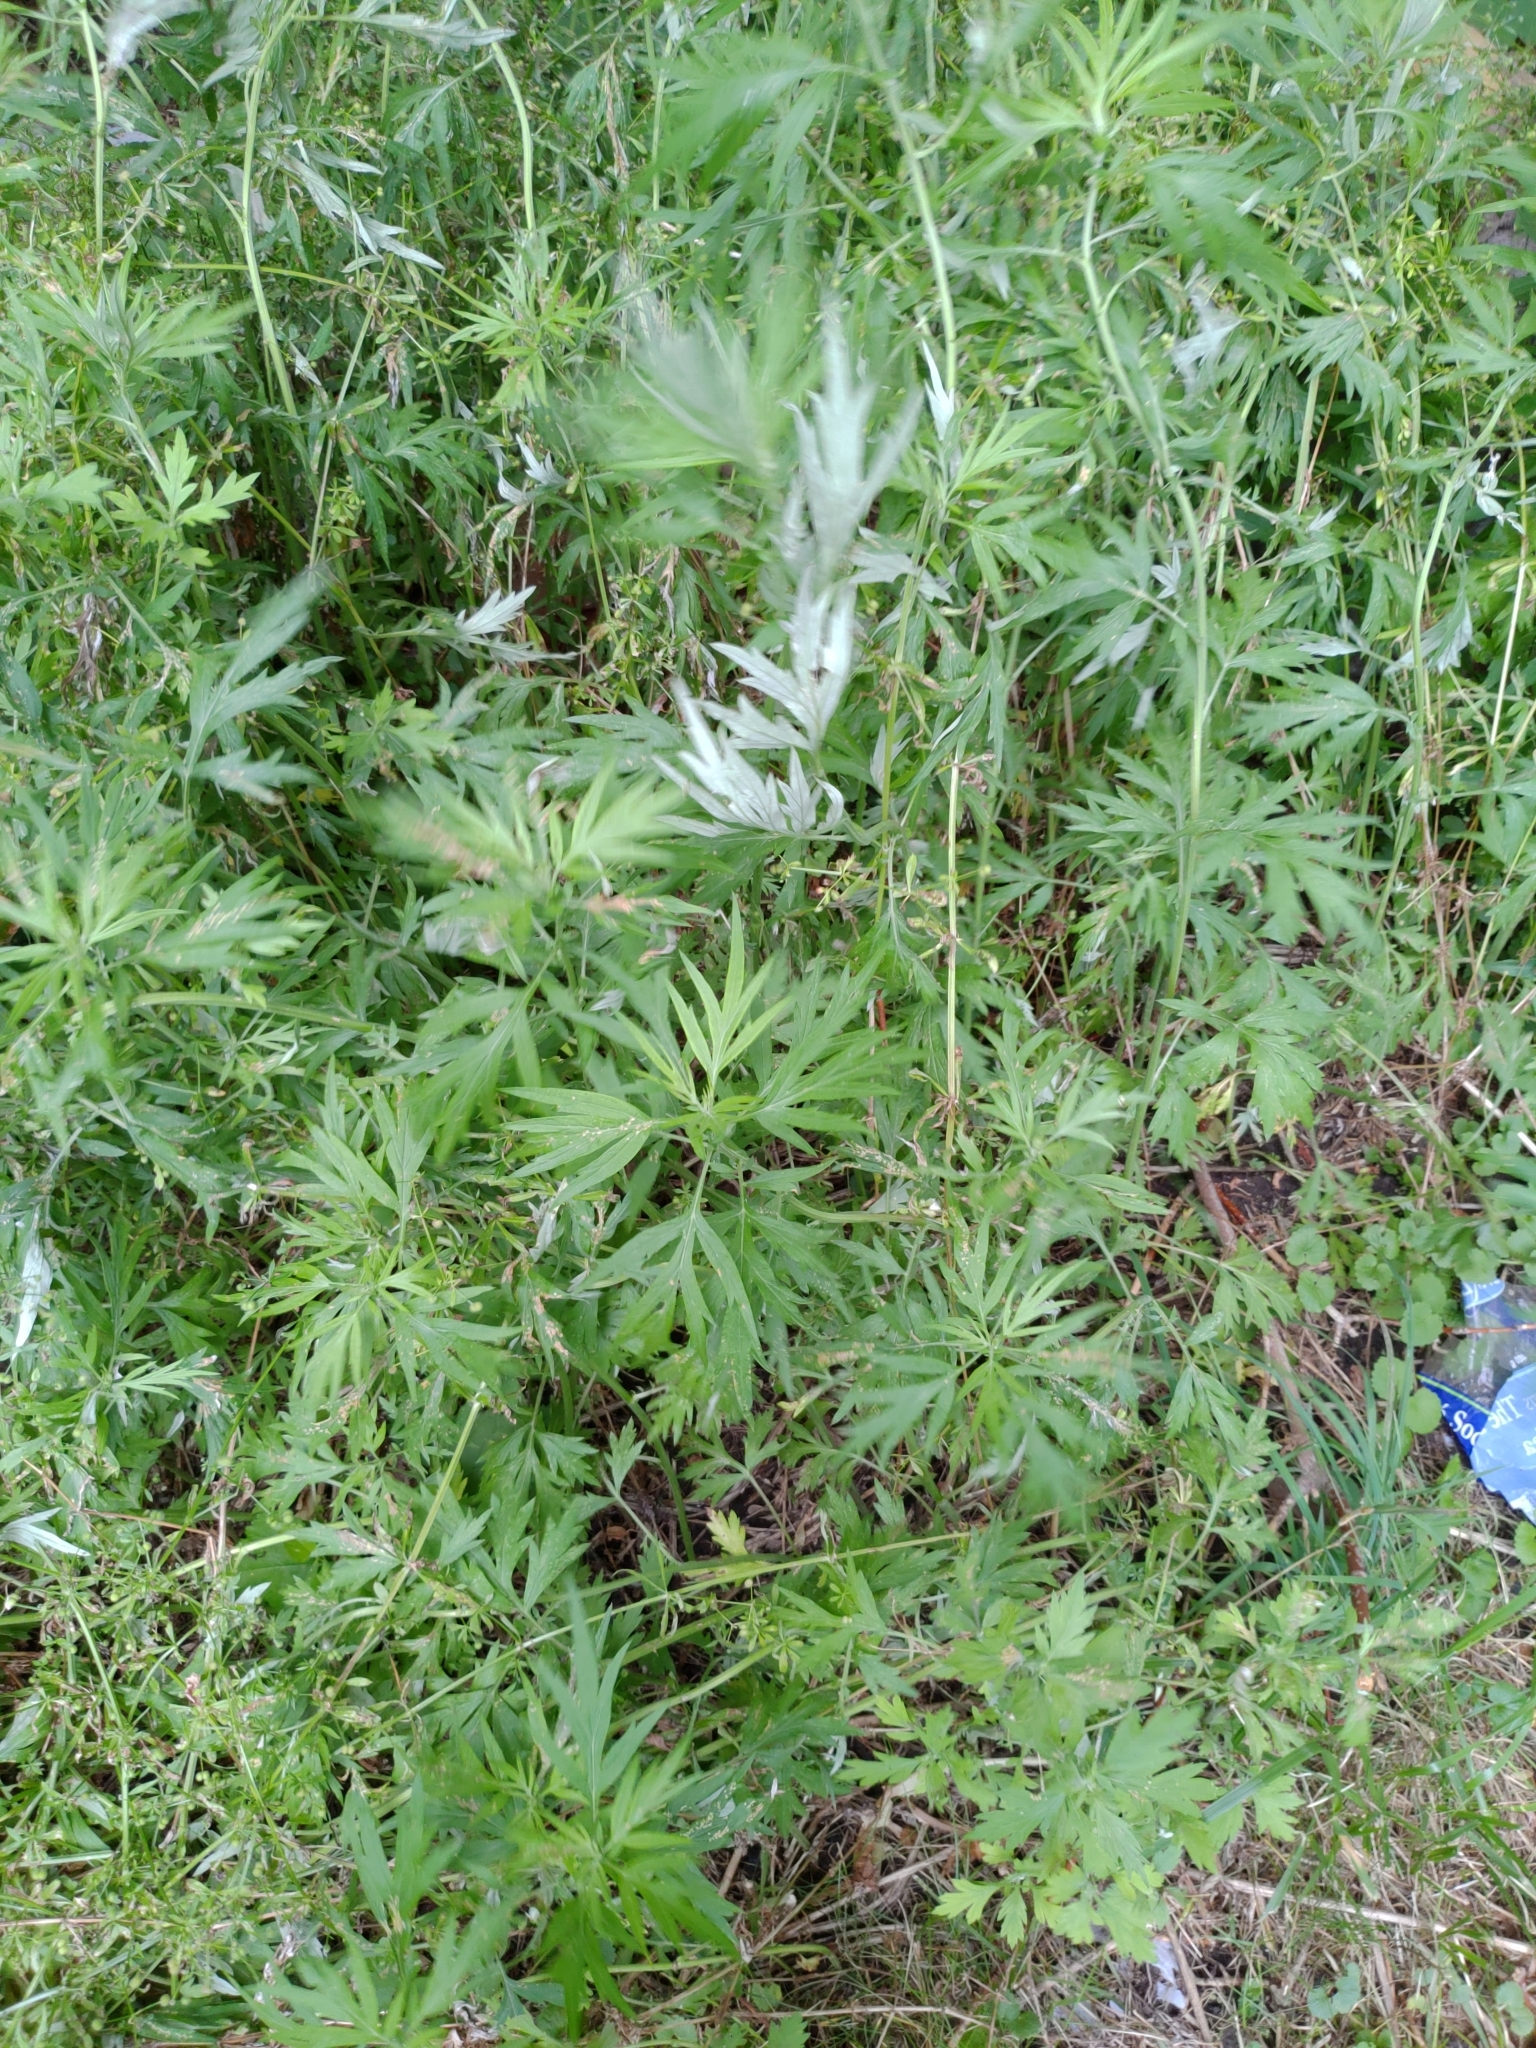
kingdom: Plantae
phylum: Tracheophyta
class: Magnoliopsida
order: Asterales
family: Asteraceae
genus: Artemisia
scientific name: Artemisia vulgaris
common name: Mugwort
